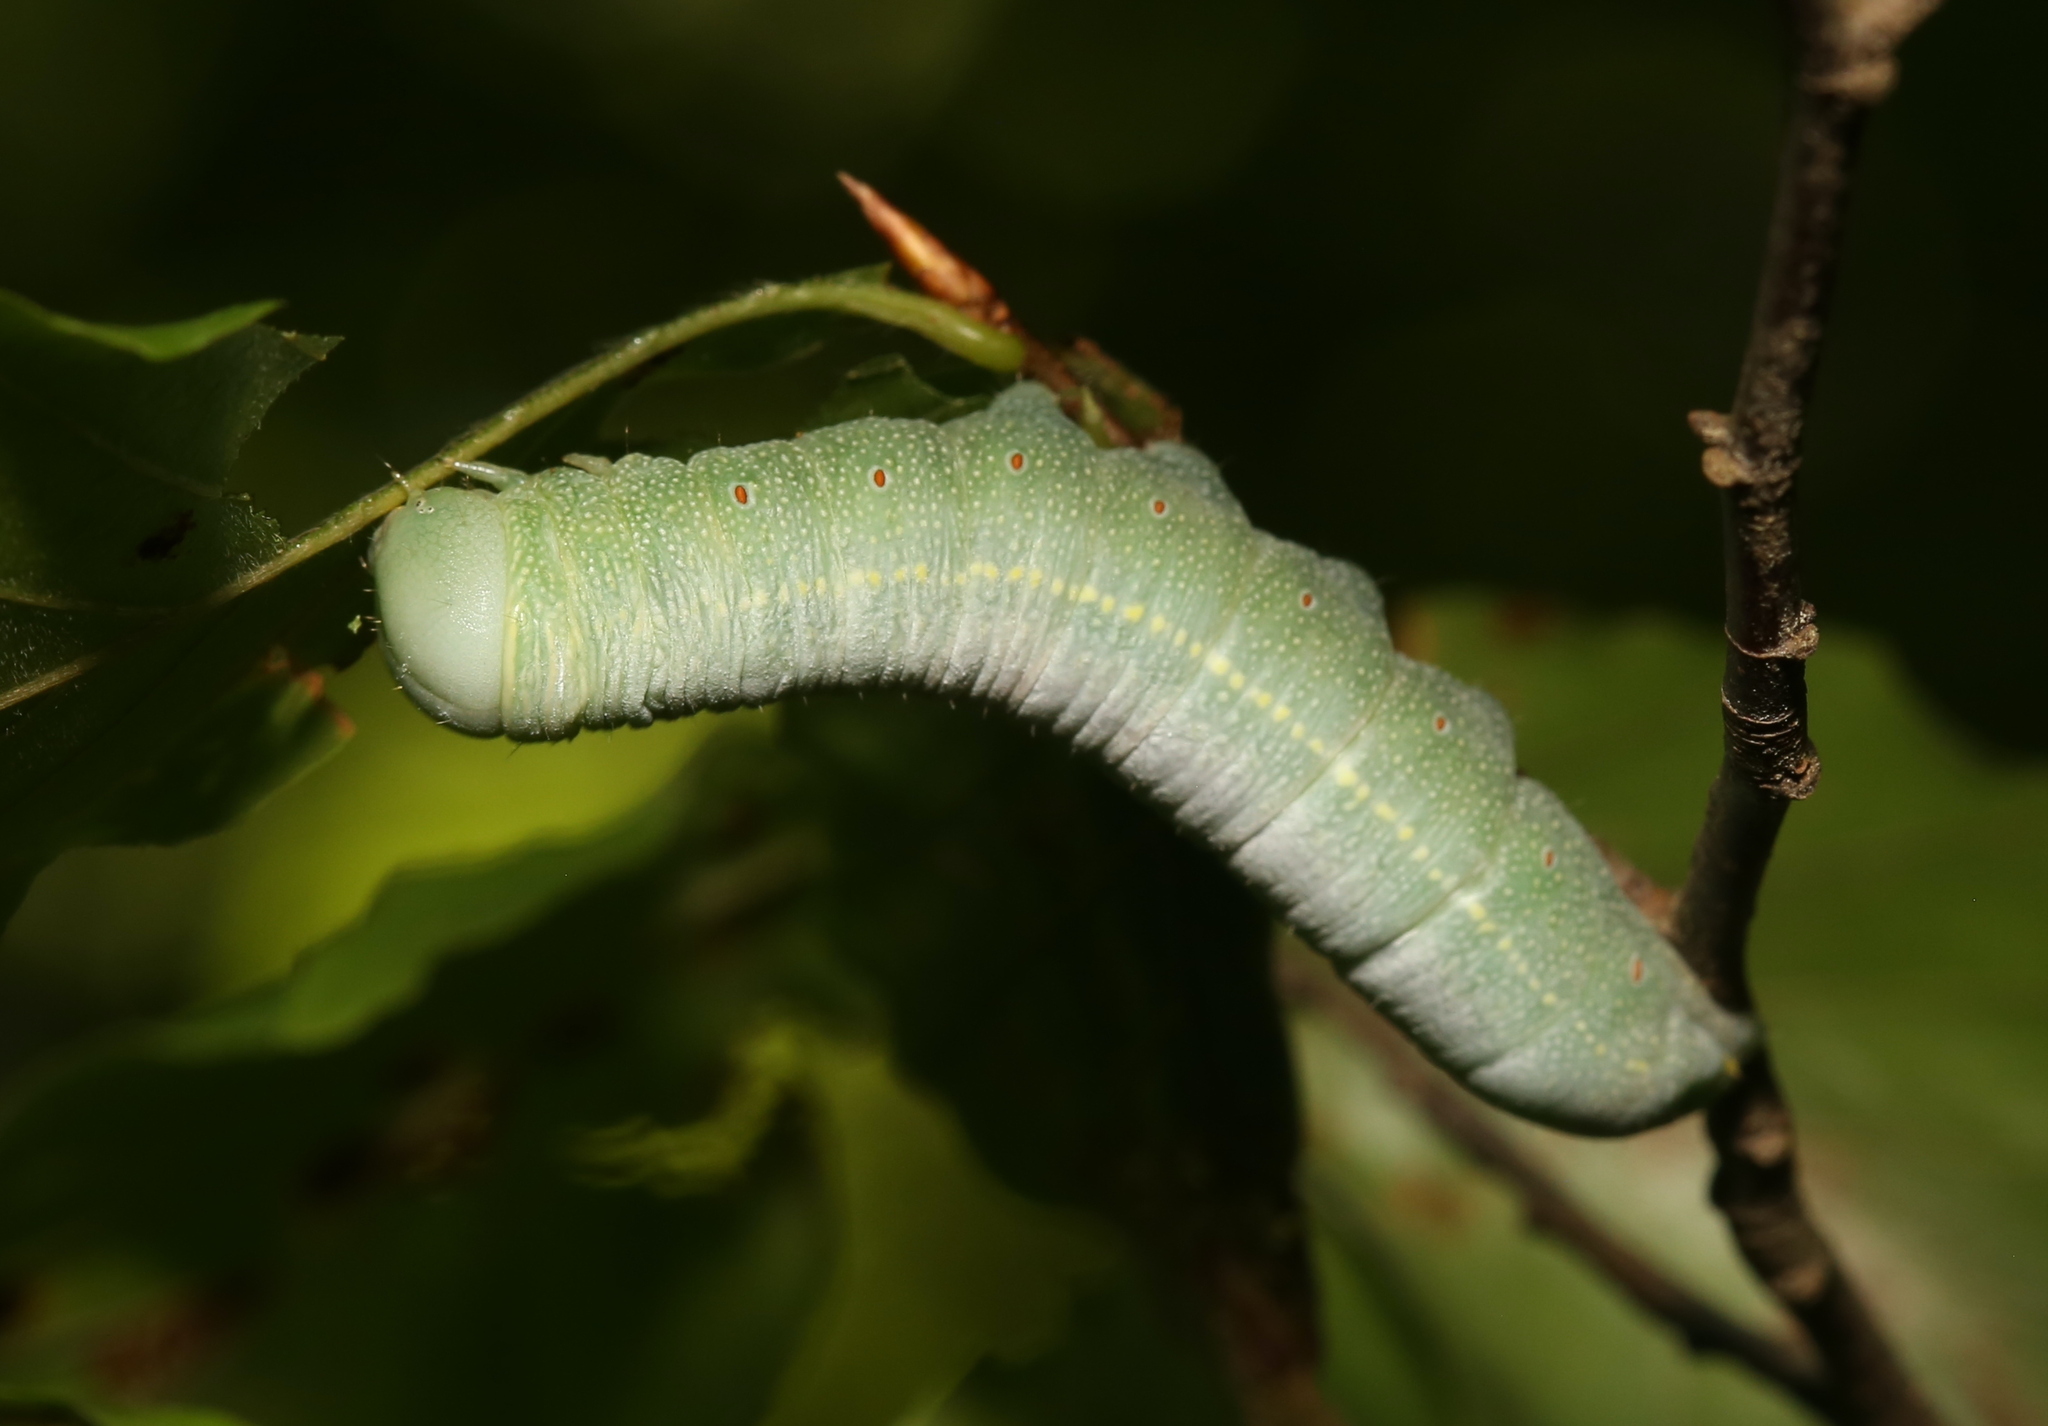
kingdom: Animalia
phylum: Arthropoda
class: Insecta
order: Lepidoptera
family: Notodontidae
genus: Nadata
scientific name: Nadata gibbosa
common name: White-dotted prominent
